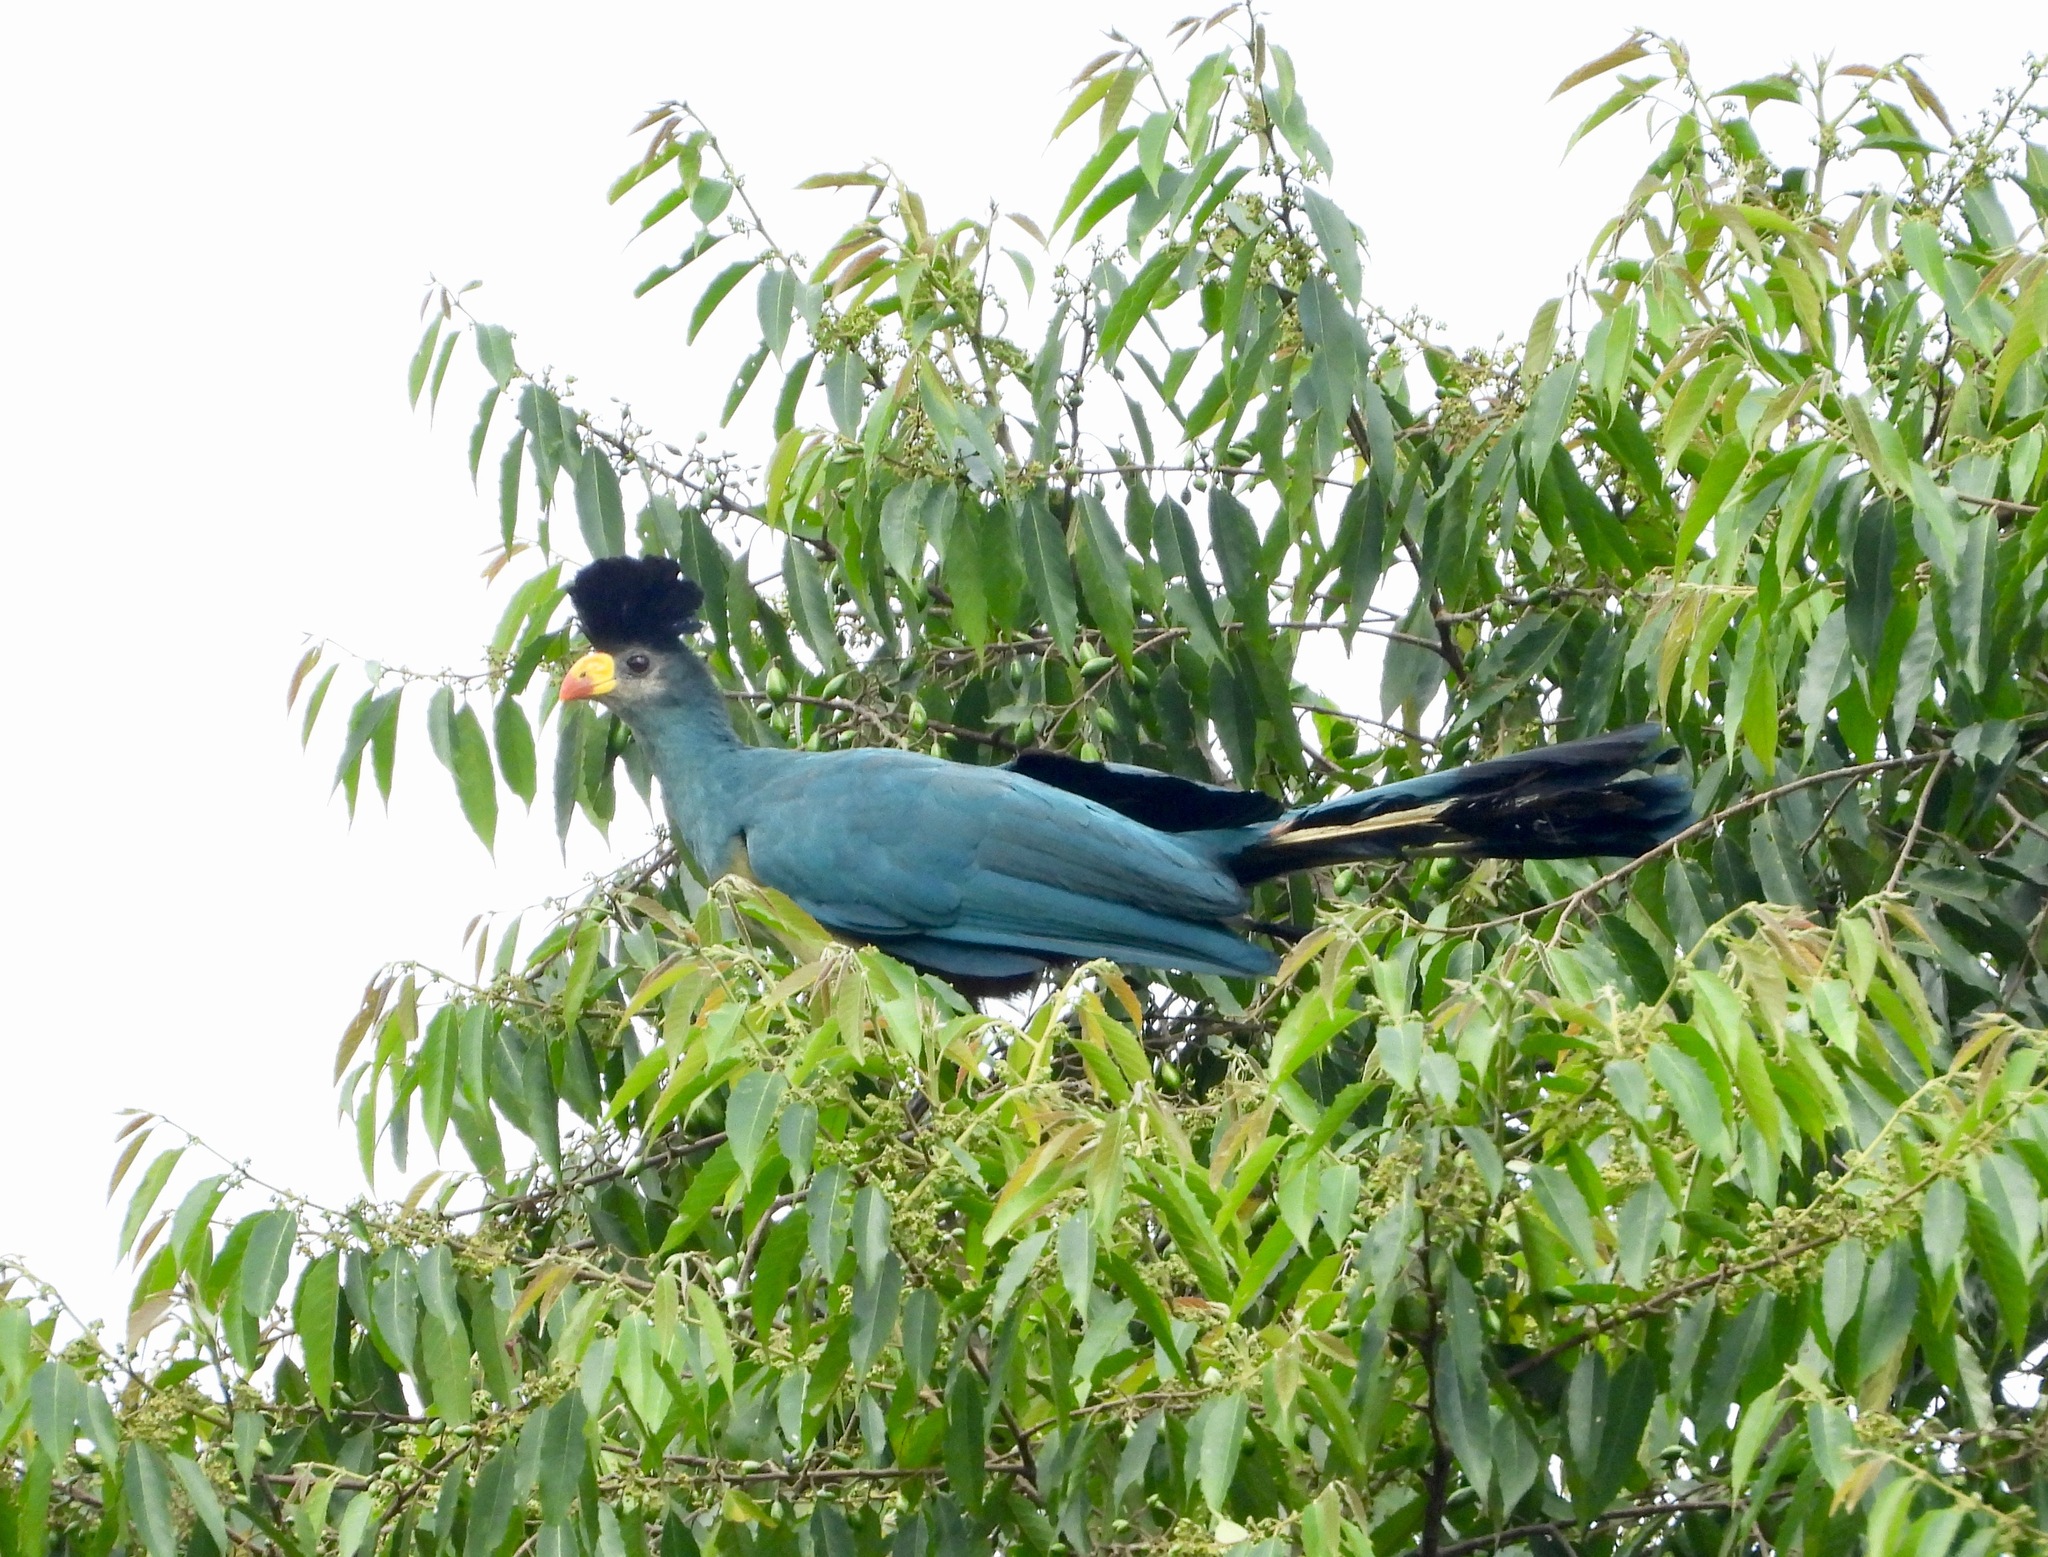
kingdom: Animalia
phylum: Chordata
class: Aves
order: Musophagiformes
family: Musophagidae
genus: Corythaeola
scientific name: Corythaeola cristata
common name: Great blue turaco
